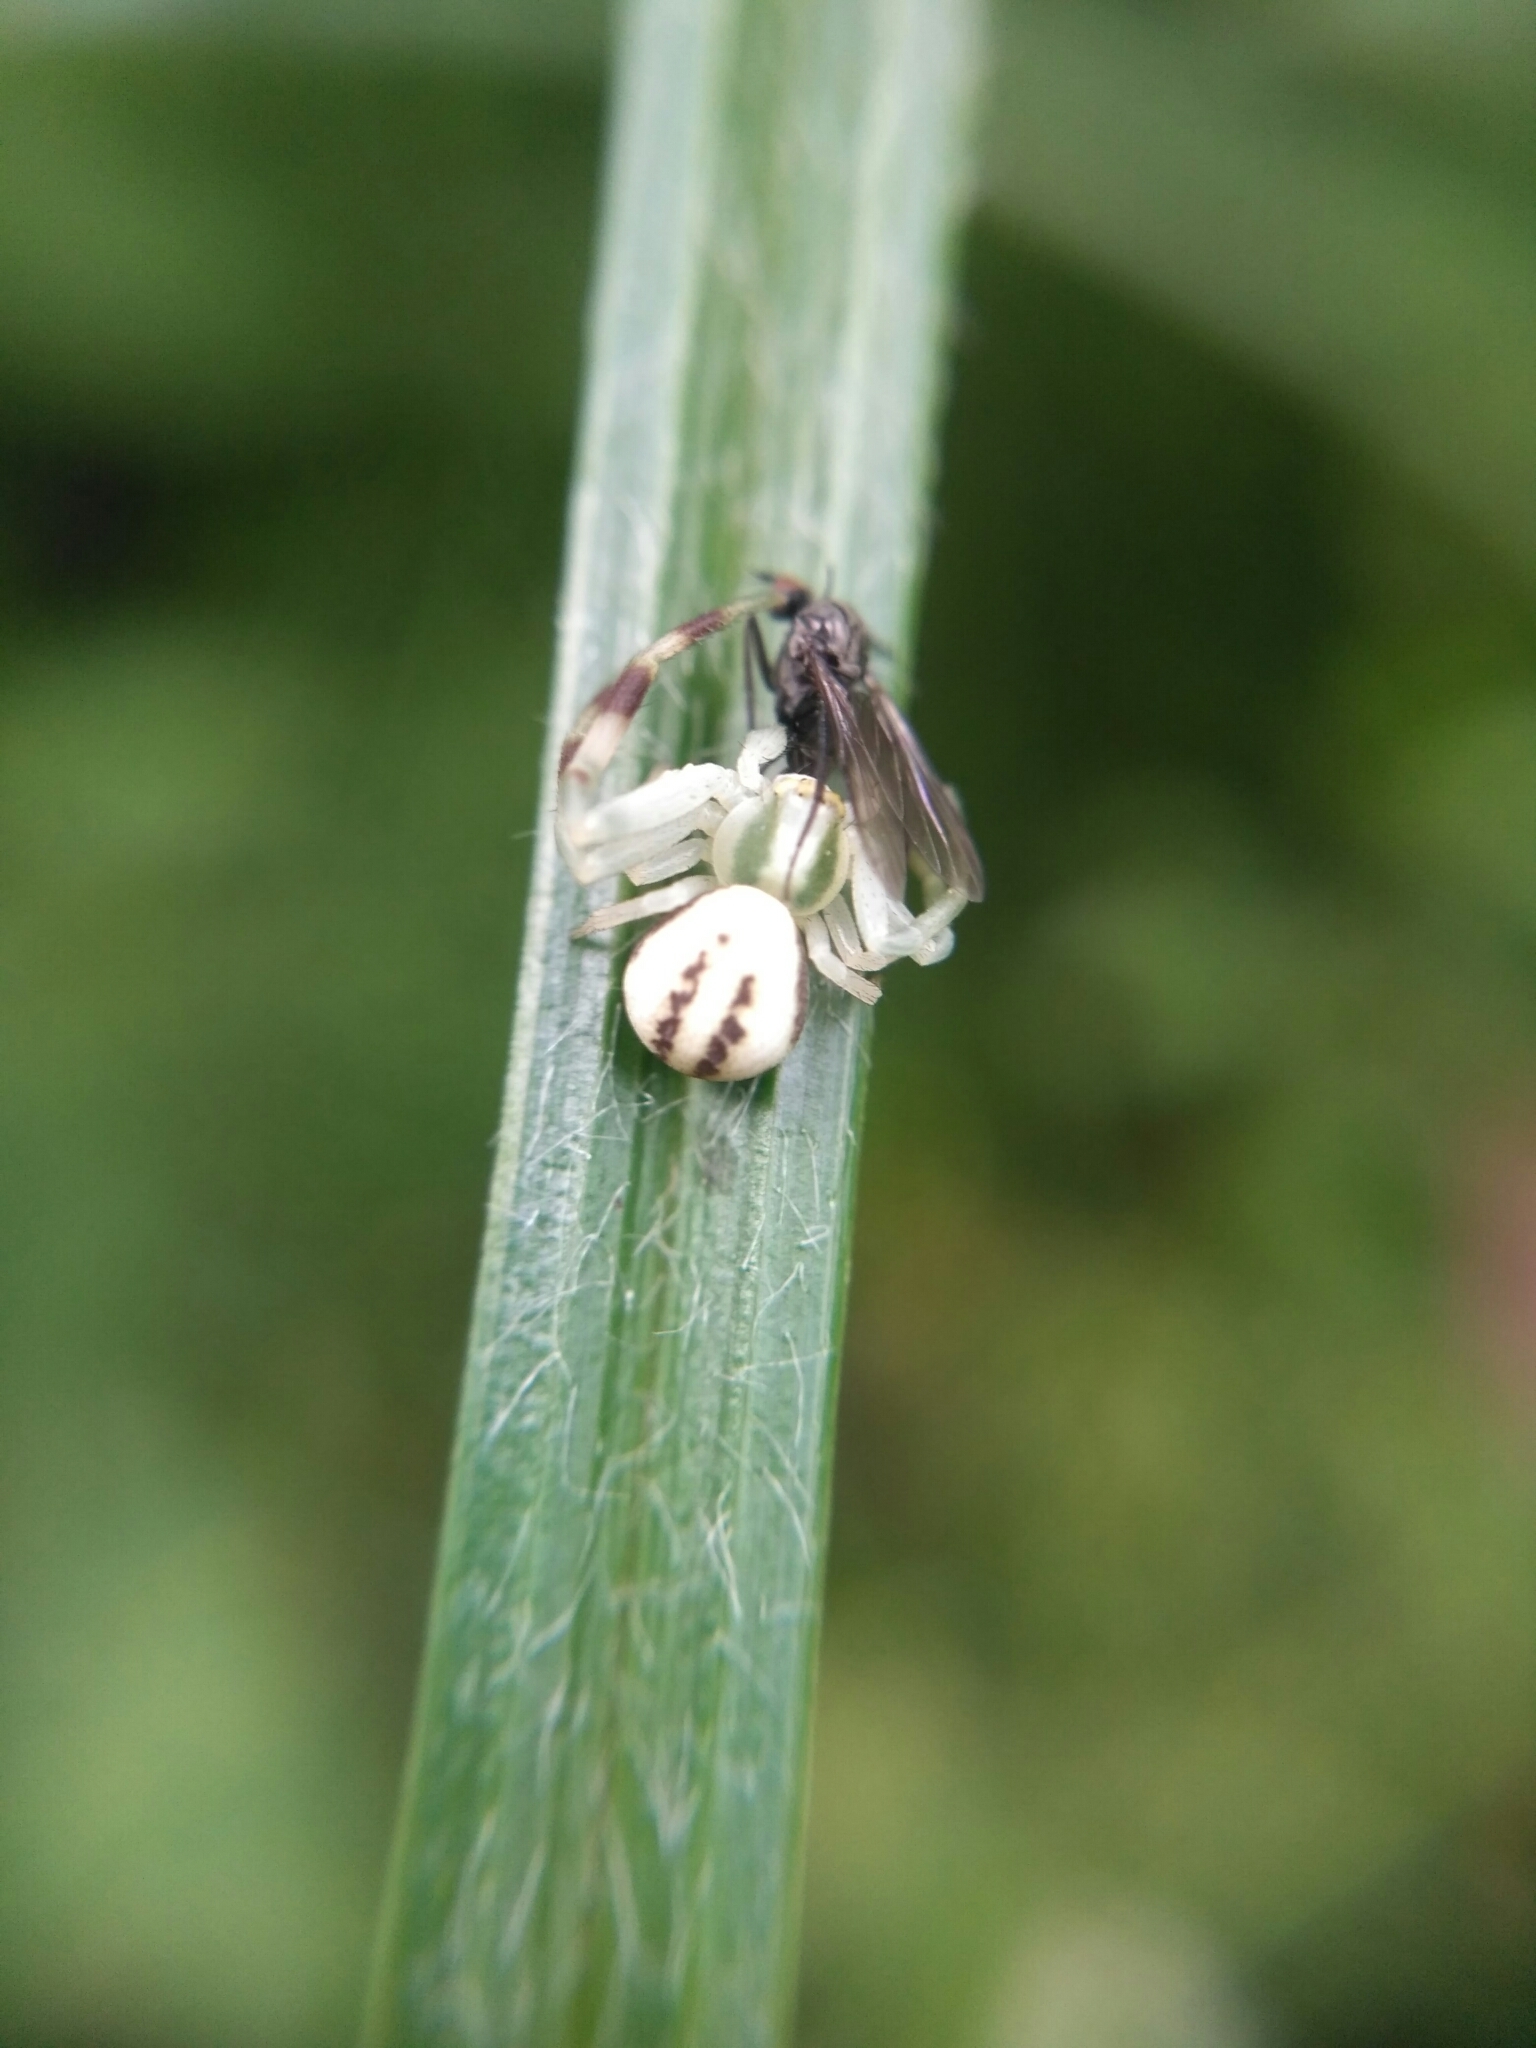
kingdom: Animalia
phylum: Arthropoda
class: Arachnida
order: Araneae
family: Thomisidae
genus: Misumena
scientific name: Misumena vatia
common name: Goldenrod crab spider
